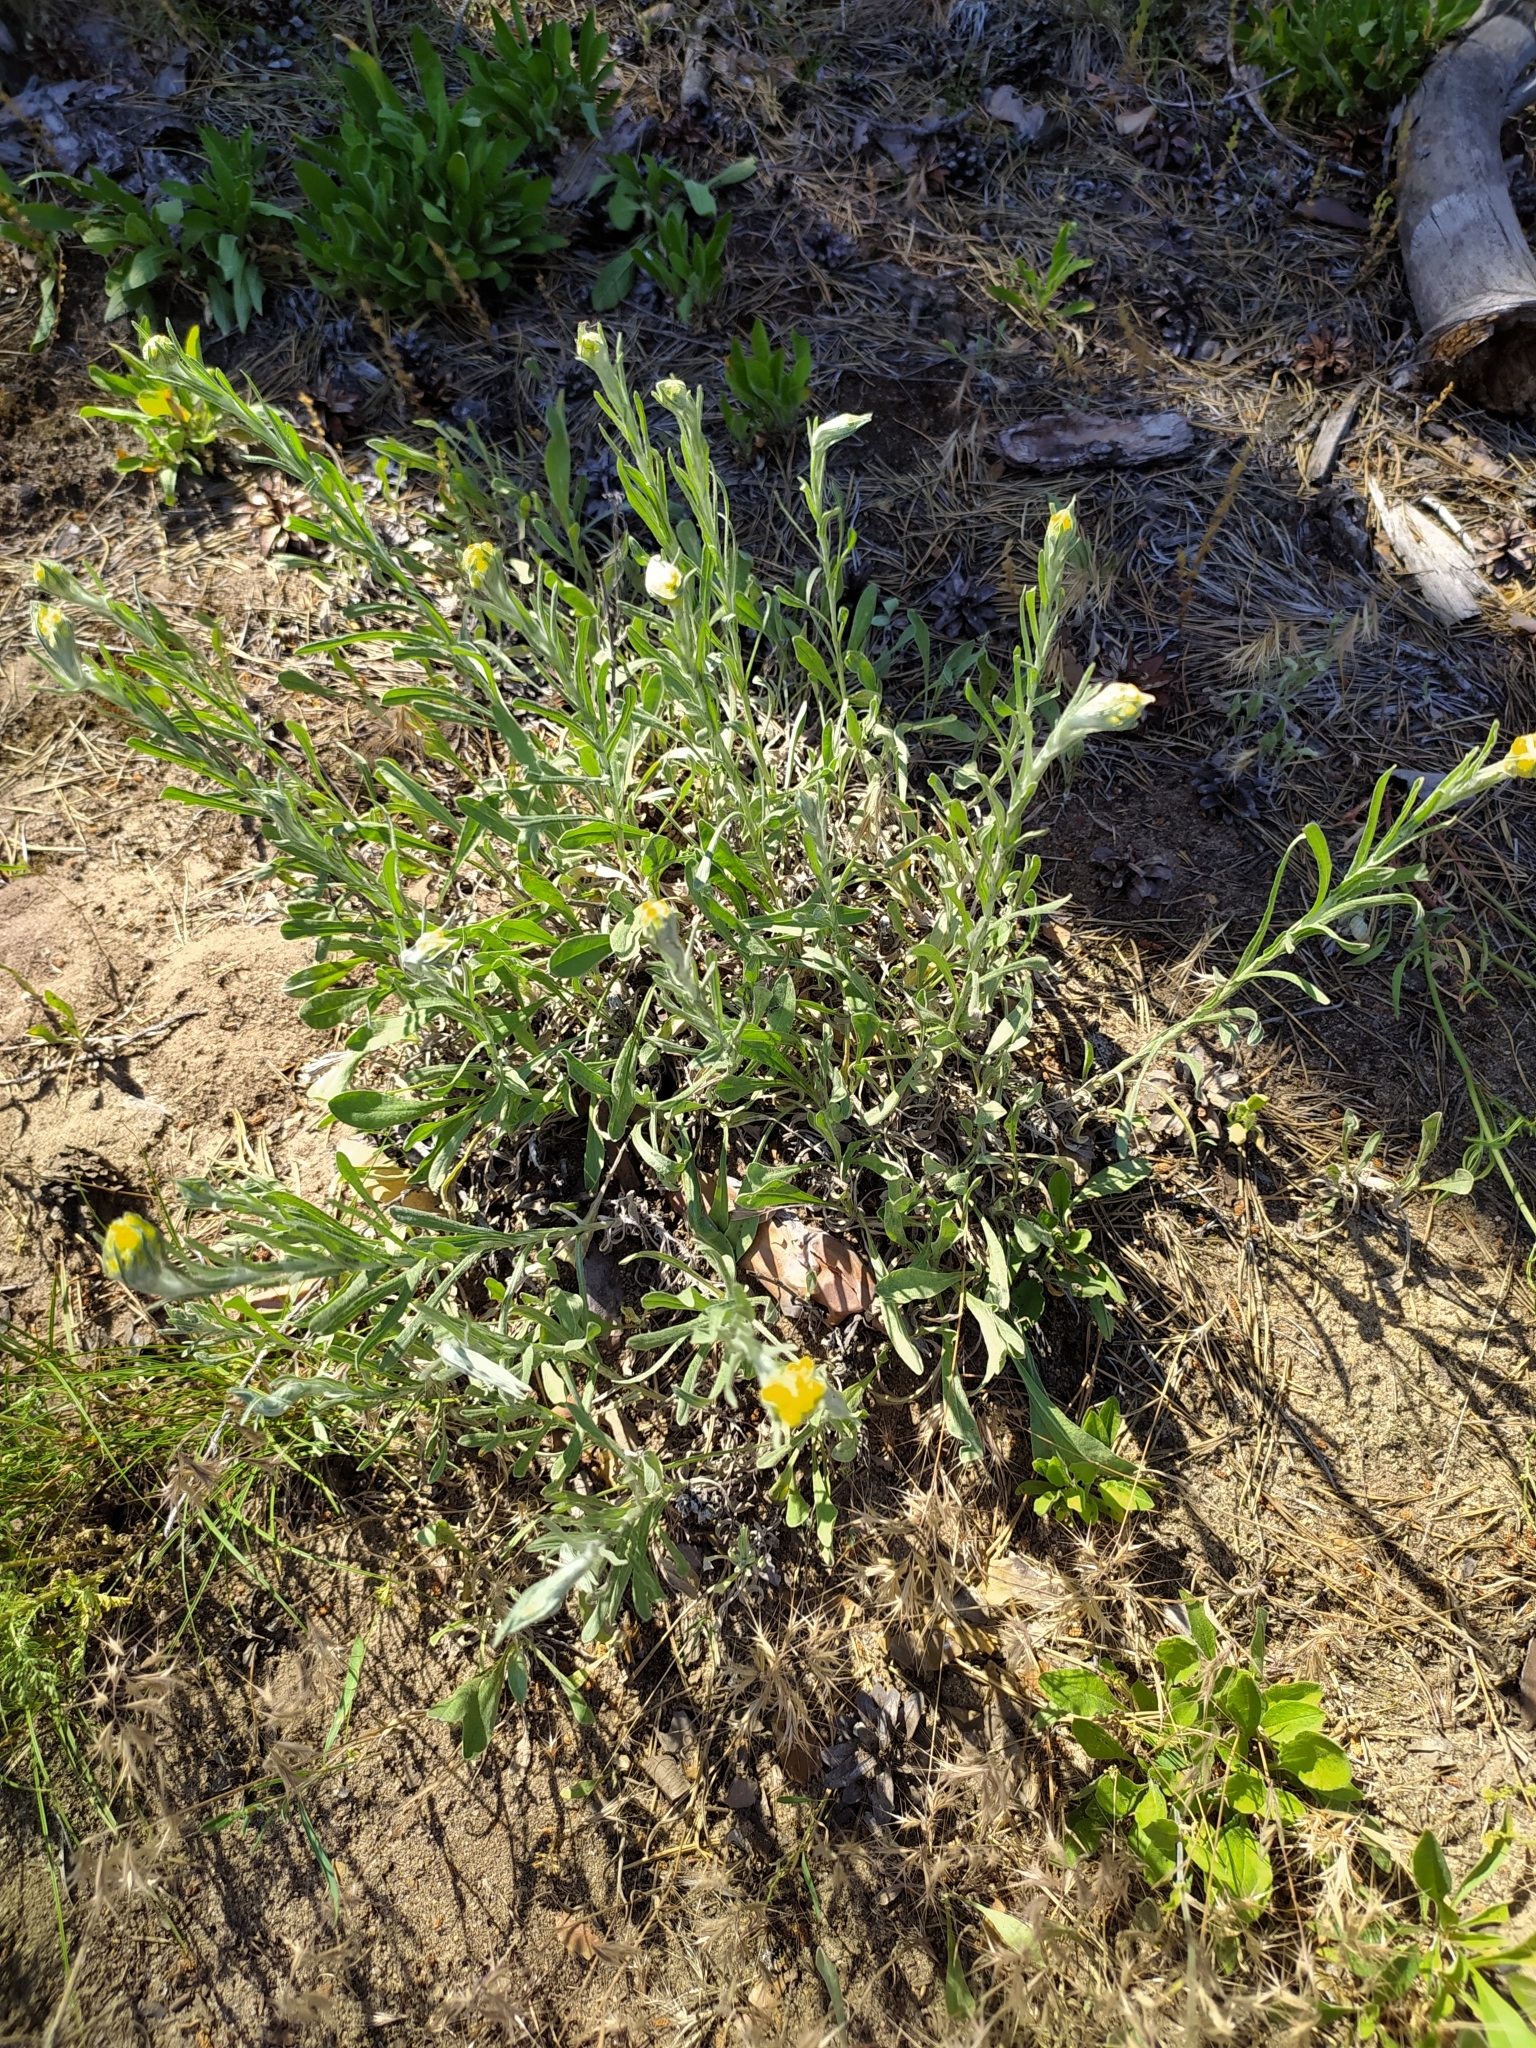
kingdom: Plantae
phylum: Tracheophyta
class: Magnoliopsida
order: Asterales
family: Asteraceae
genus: Helichrysum
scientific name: Helichrysum arenarium
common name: Strawflower
